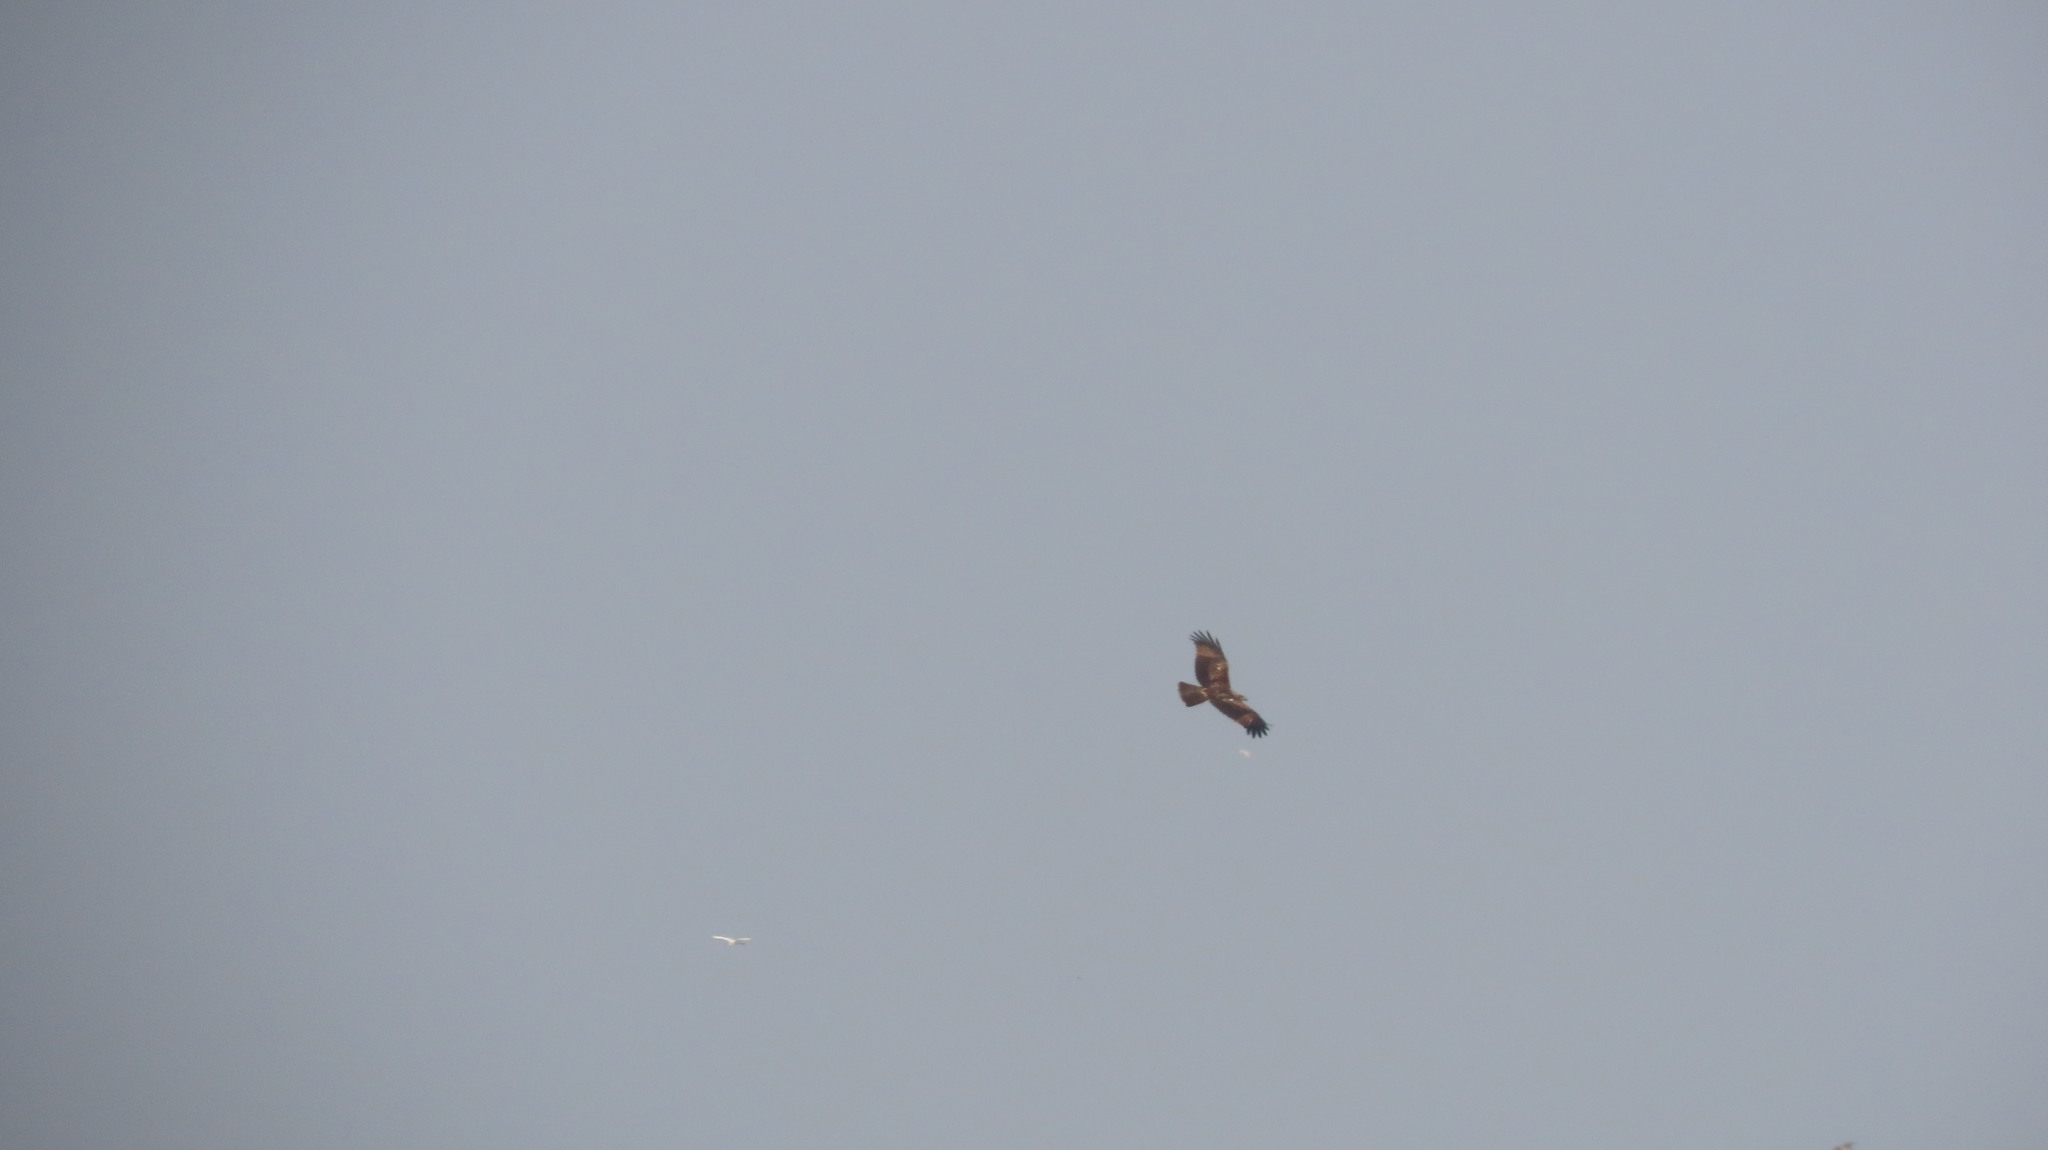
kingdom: Animalia
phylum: Chordata
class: Aves
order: Accipitriformes
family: Accipitridae
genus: Haliastur
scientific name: Haliastur indus
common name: Brahminy kite
